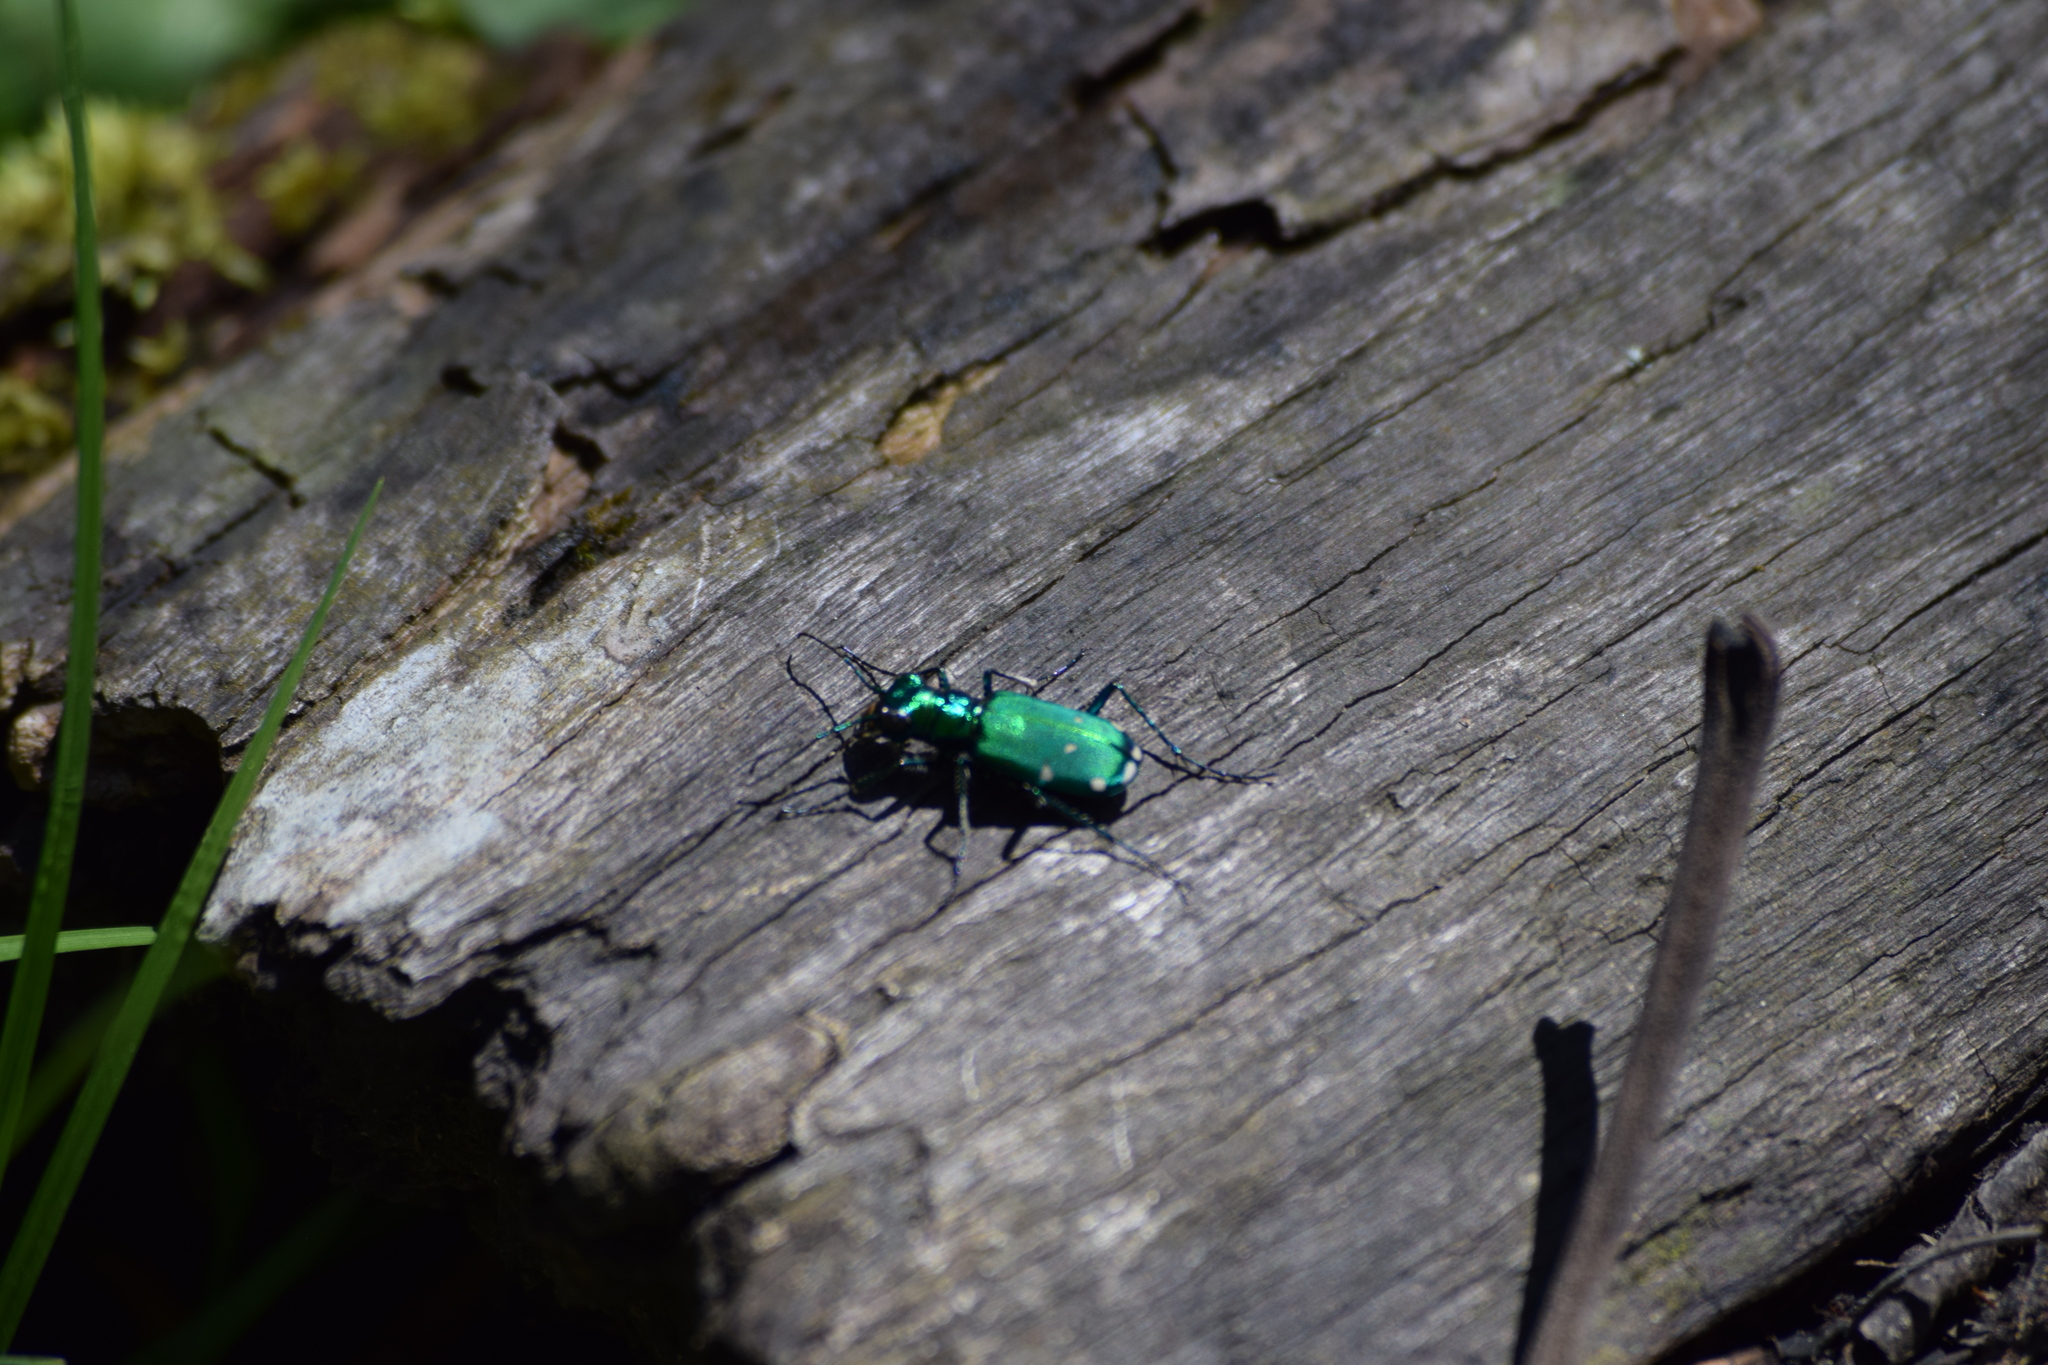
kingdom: Animalia
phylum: Arthropoda
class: Insecta
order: Coleoptera
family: Carabidae
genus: Cicindela
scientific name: Cicindela sexguttata
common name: Six-spotted tiger beetle
